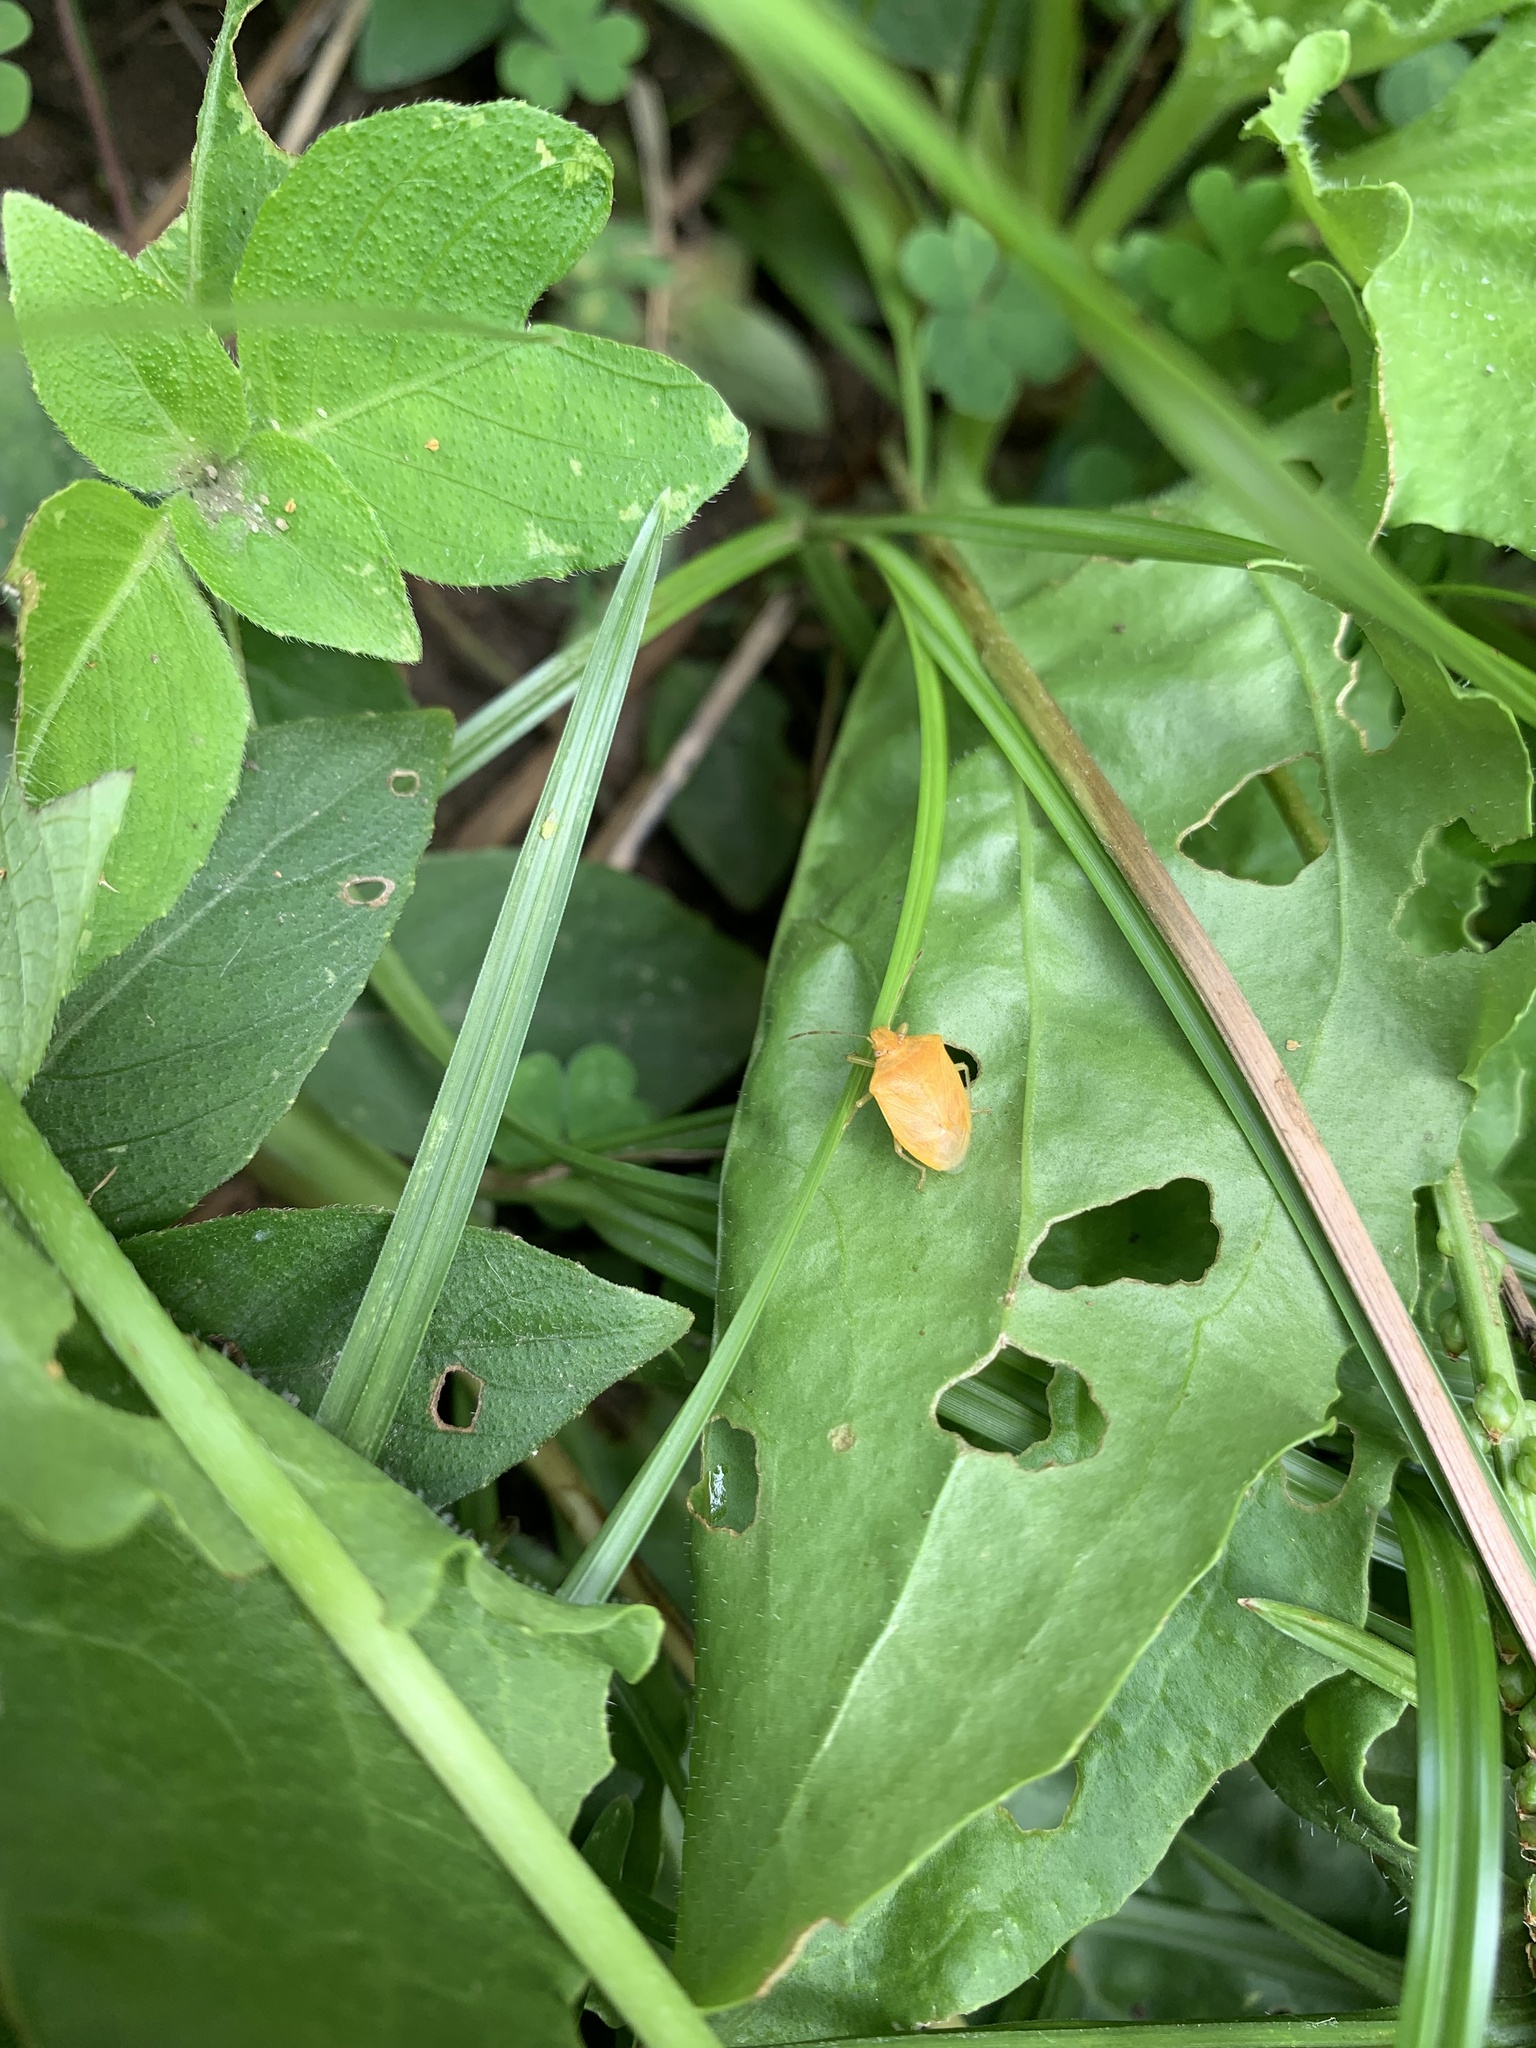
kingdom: Animalia
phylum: Arthropoda
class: Insecta
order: Hemiptera
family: Pentatomidae
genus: Thyanta
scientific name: Thyanta perditor
